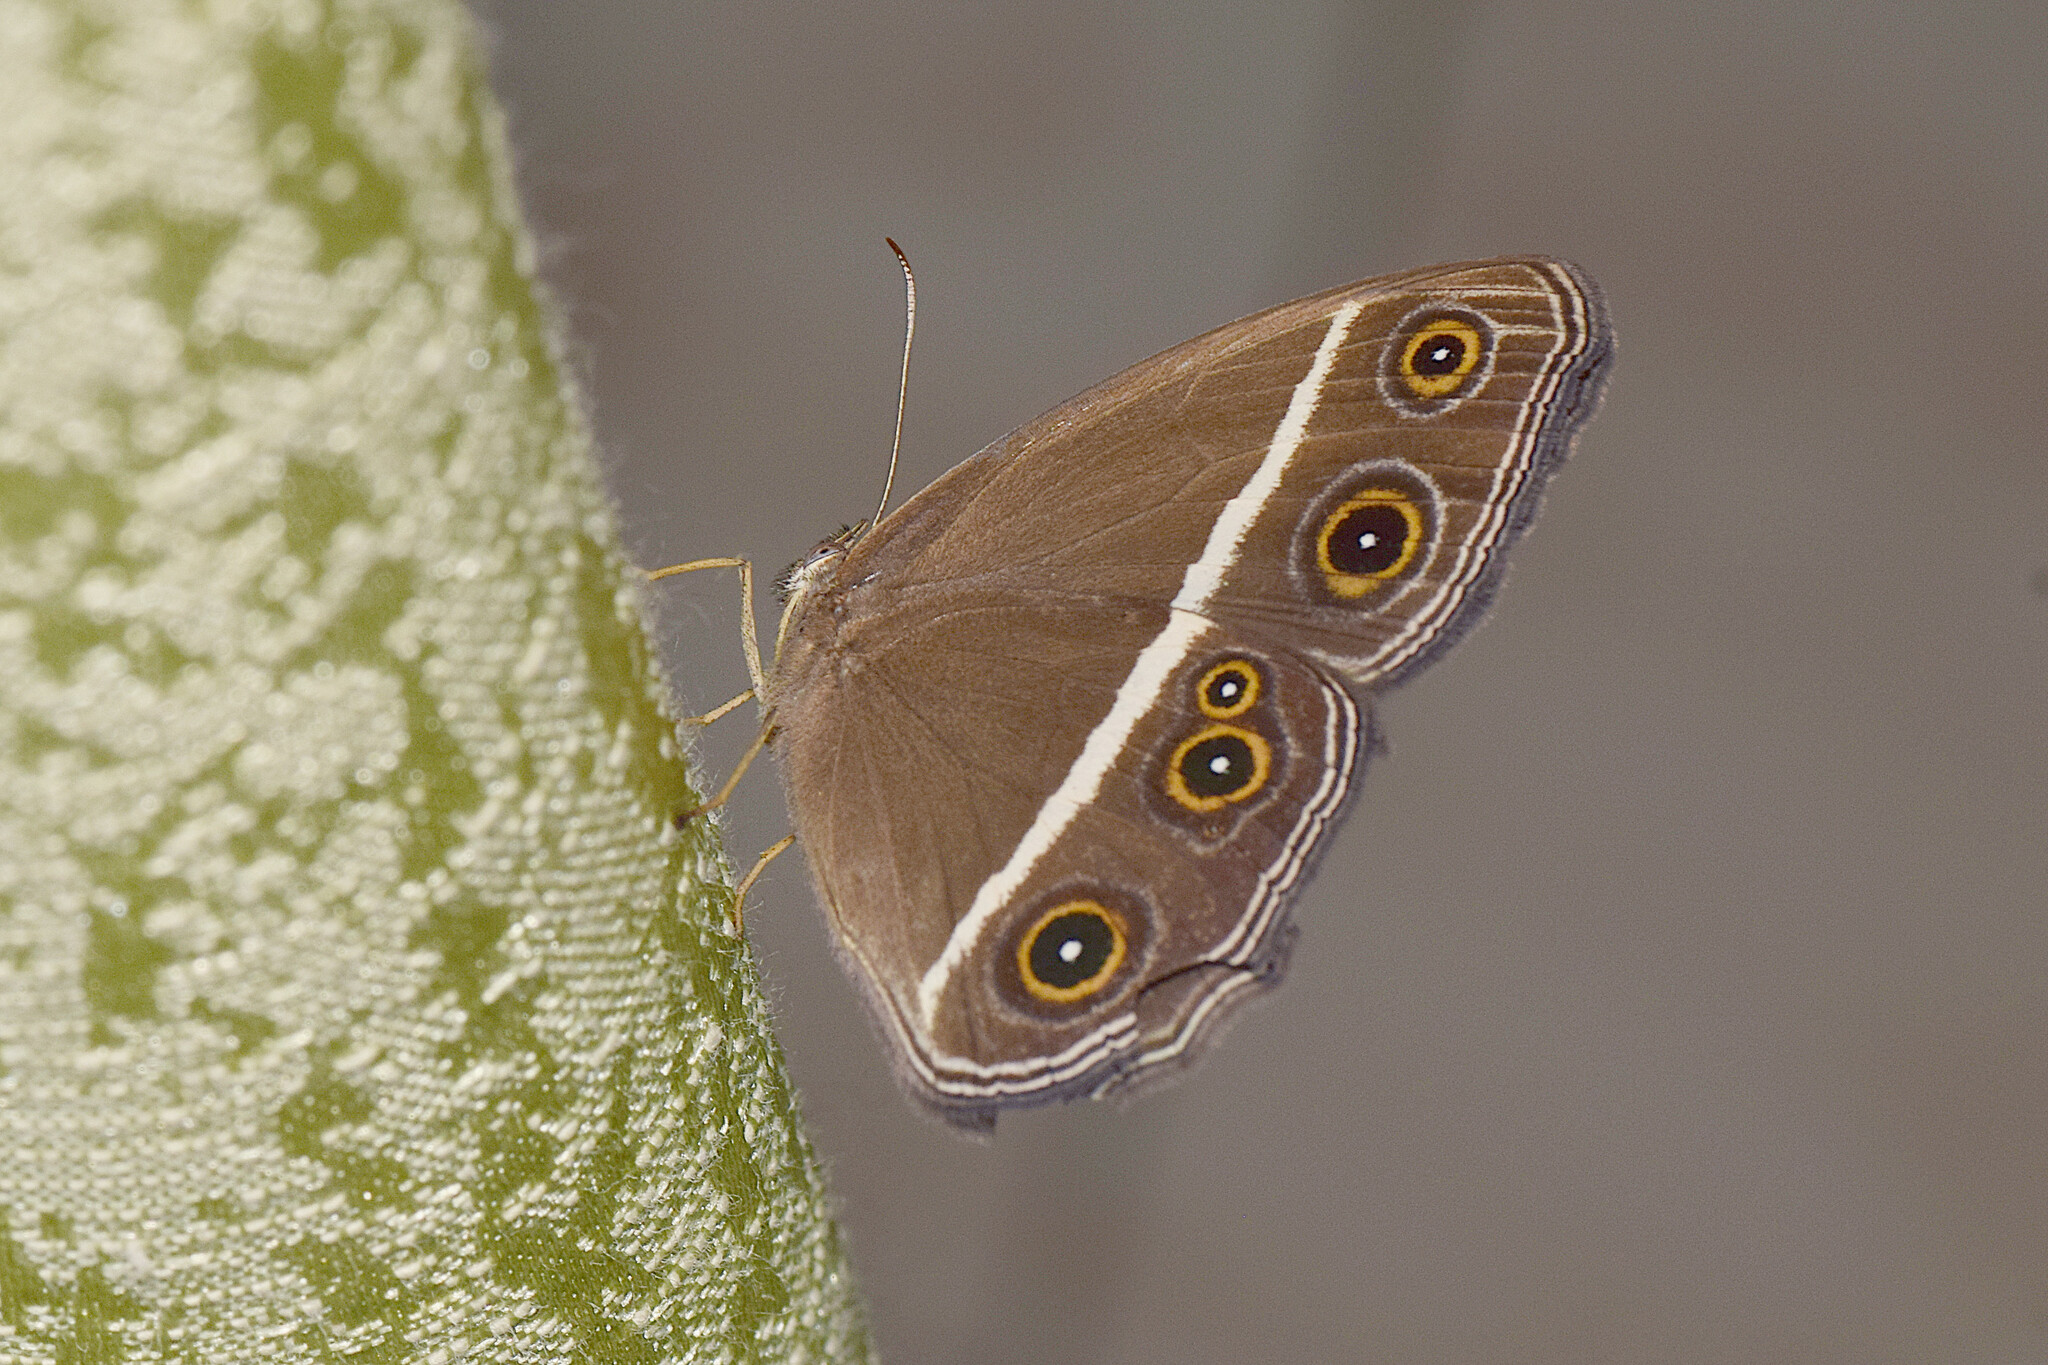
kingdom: Animalia
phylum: Arthropoda
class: Insecta
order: Lepidoptera
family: Nymphalidae
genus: Orsotriaena
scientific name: Orsotriaena medus
